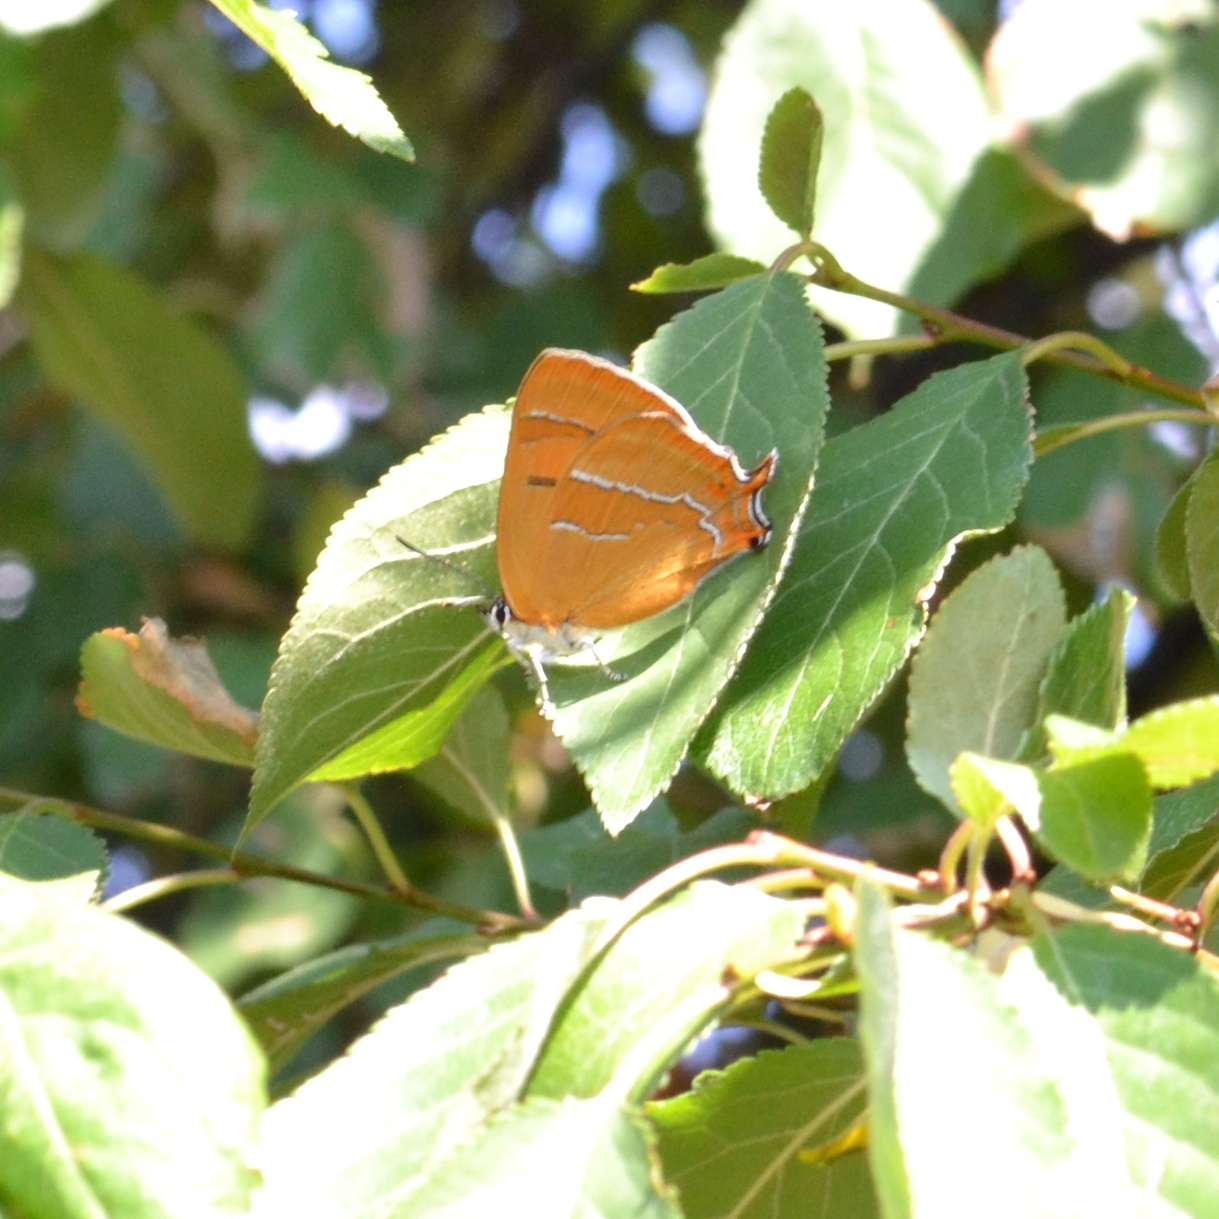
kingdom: Animalia
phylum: Arthropoda
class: Insecta
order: Lepidoptera
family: Lycaenidae
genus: Thecla
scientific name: Thecla betulae
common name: Brown hairstreak
